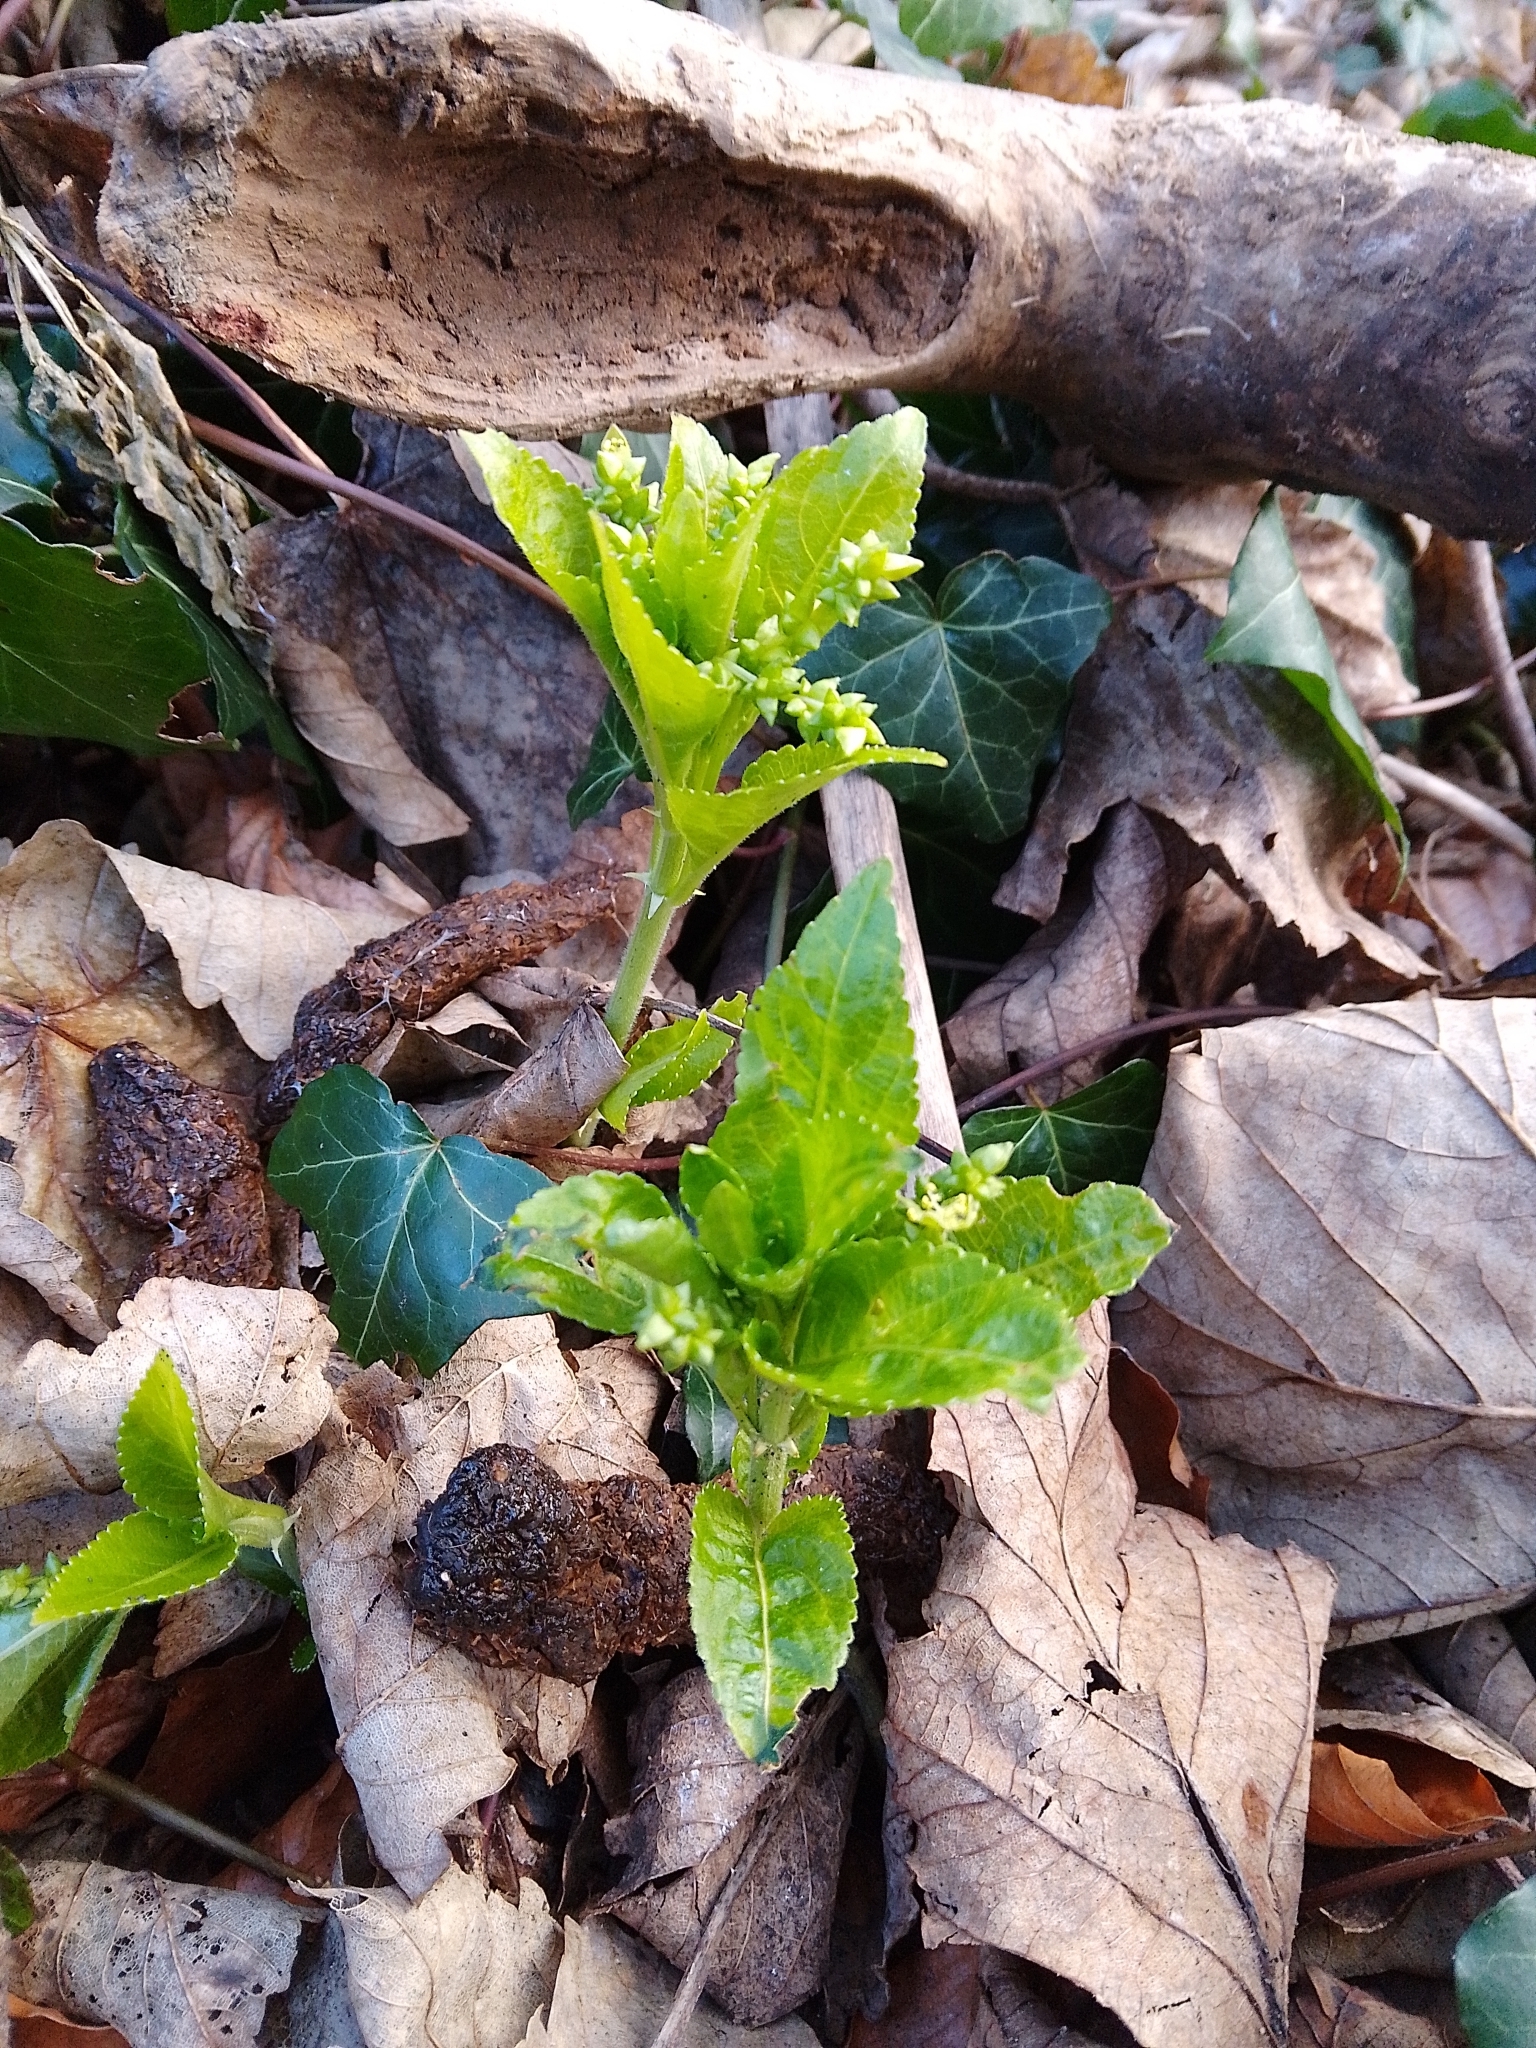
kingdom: Plantae
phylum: Tracheophyta
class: Magnoliopsida
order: Malpighiales
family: Euphorbiaceae
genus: Mercurialis
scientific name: Mercurialis perennis
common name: Dog mercury
